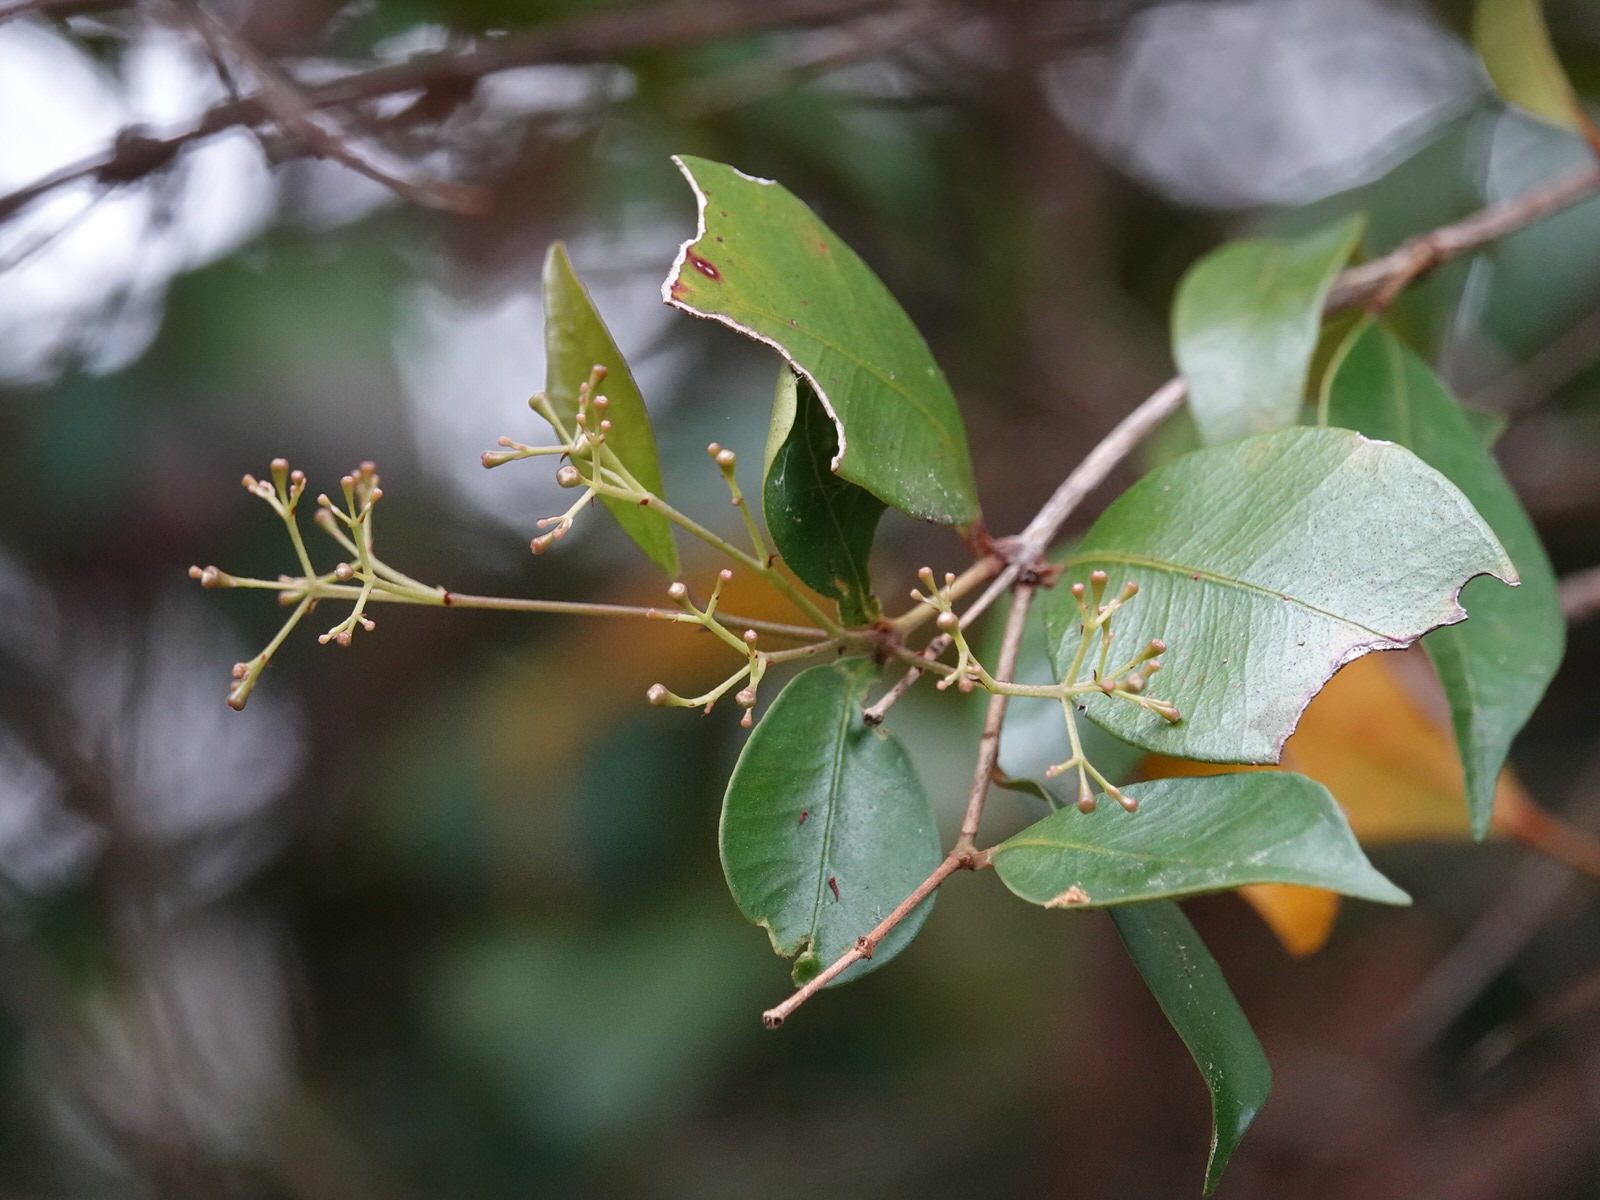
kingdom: Plantae
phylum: Tracheophyta
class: Magnoliopsida
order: Myrtales
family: Myrtaceae
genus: Syzygium
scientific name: Syzygium smithii
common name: Lilly-pilly
